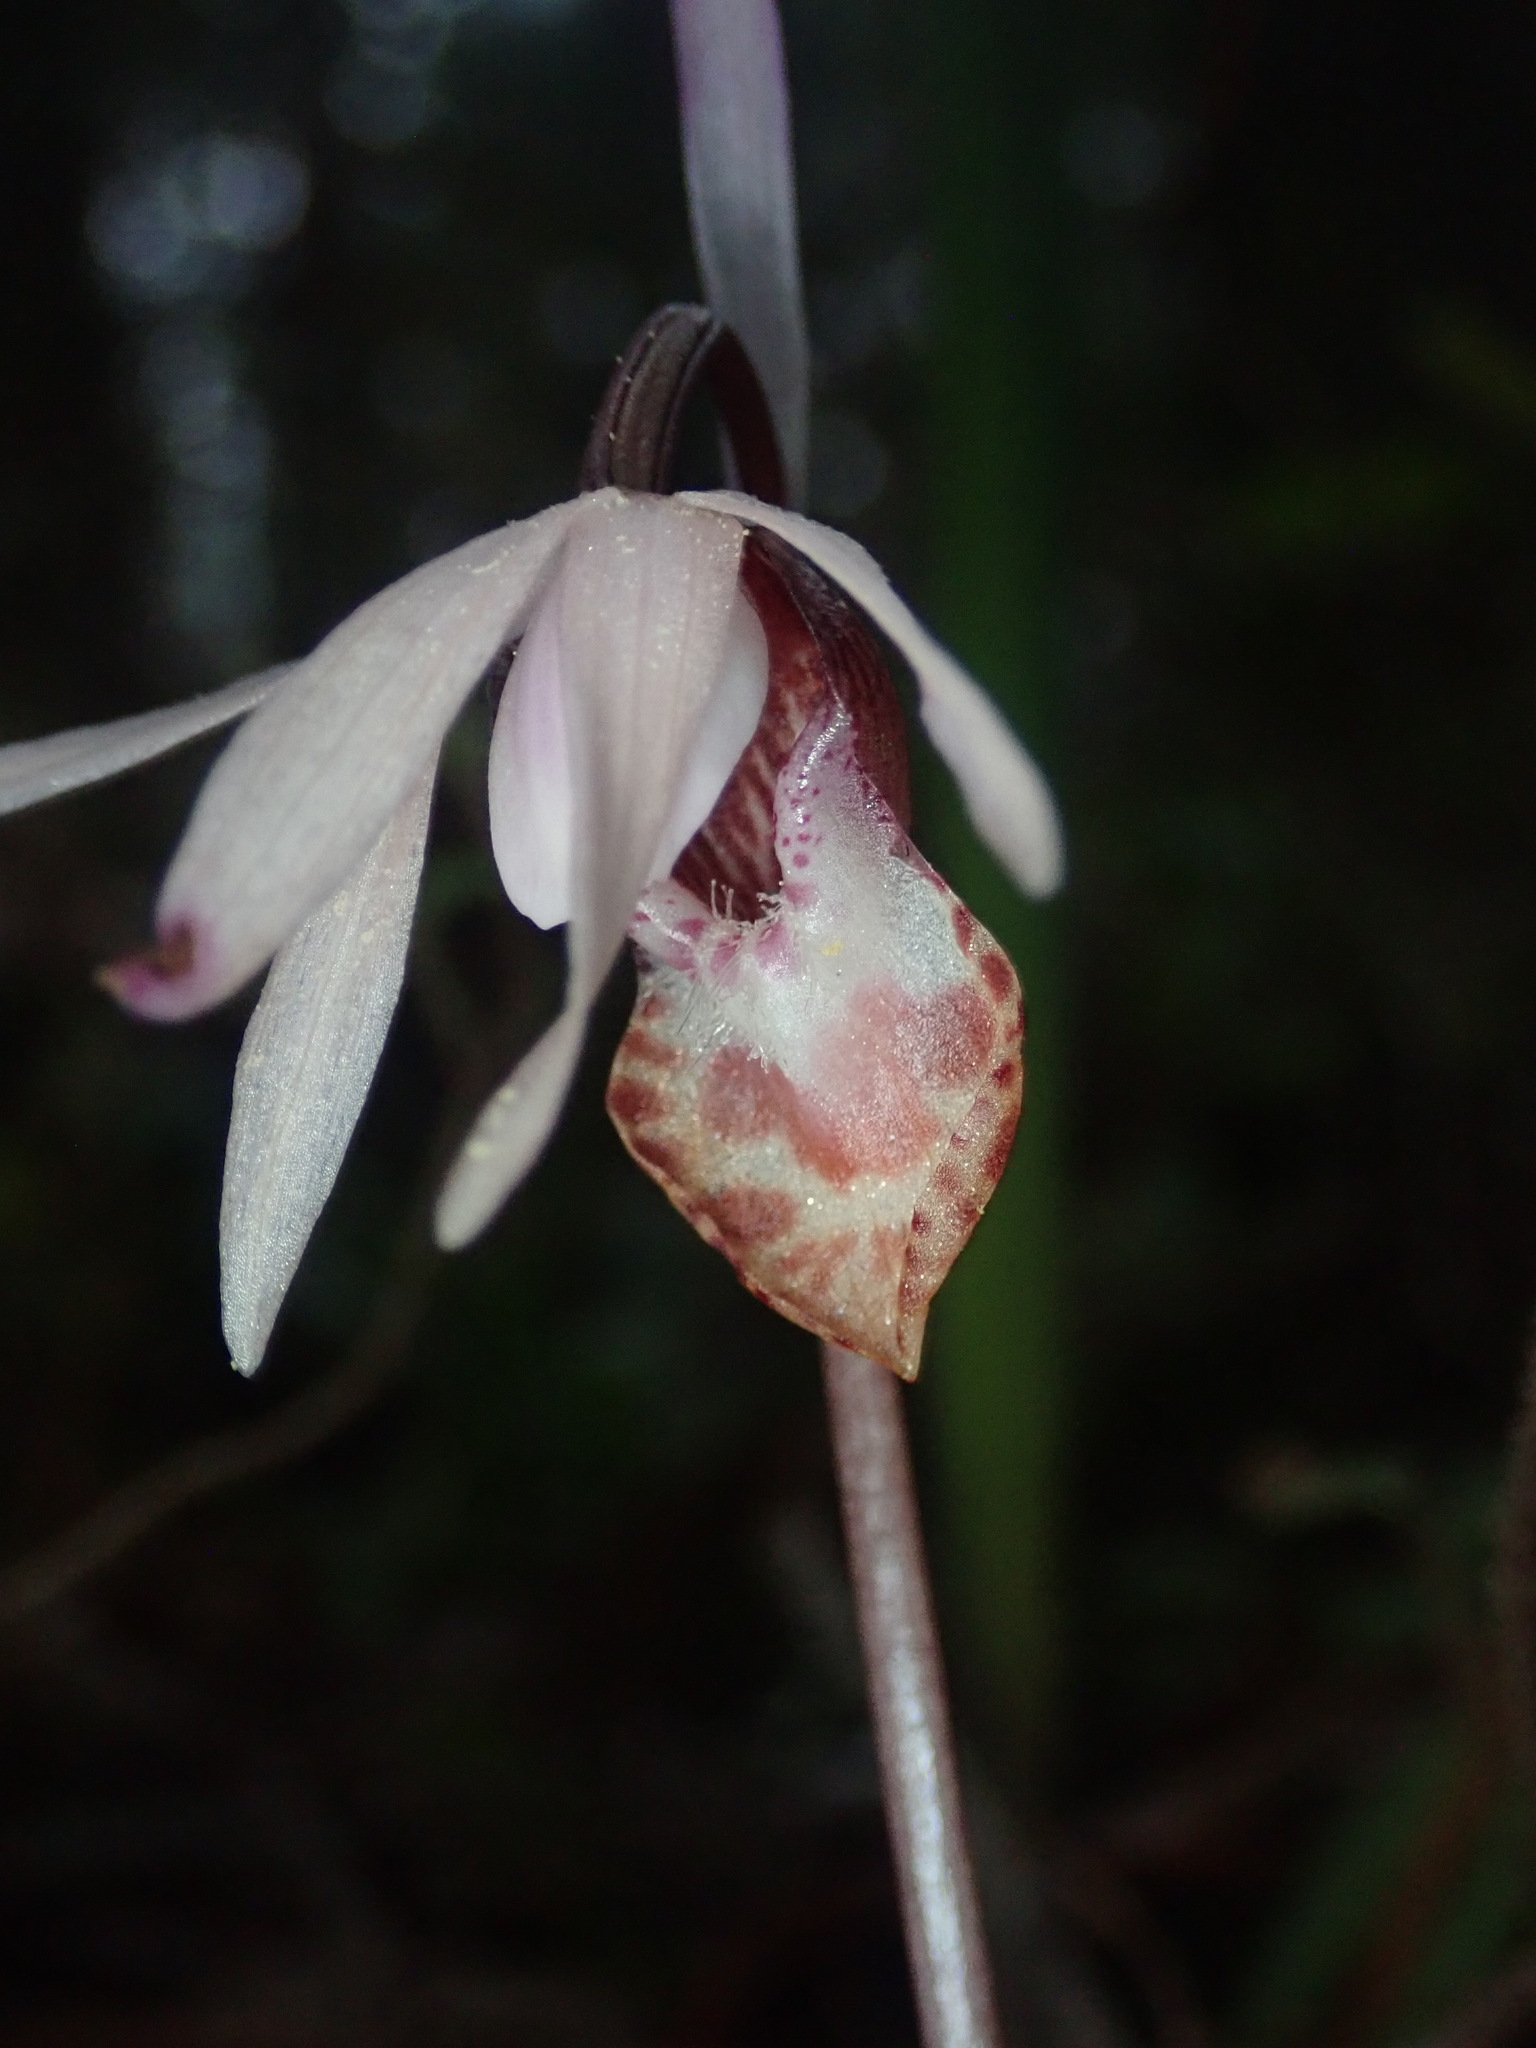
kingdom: Plantae
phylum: Tracheophyta
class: Liliopsida
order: Asparagales
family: Orchidaceae
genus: Calypso
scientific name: Calypso bulbosa
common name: Calypso
